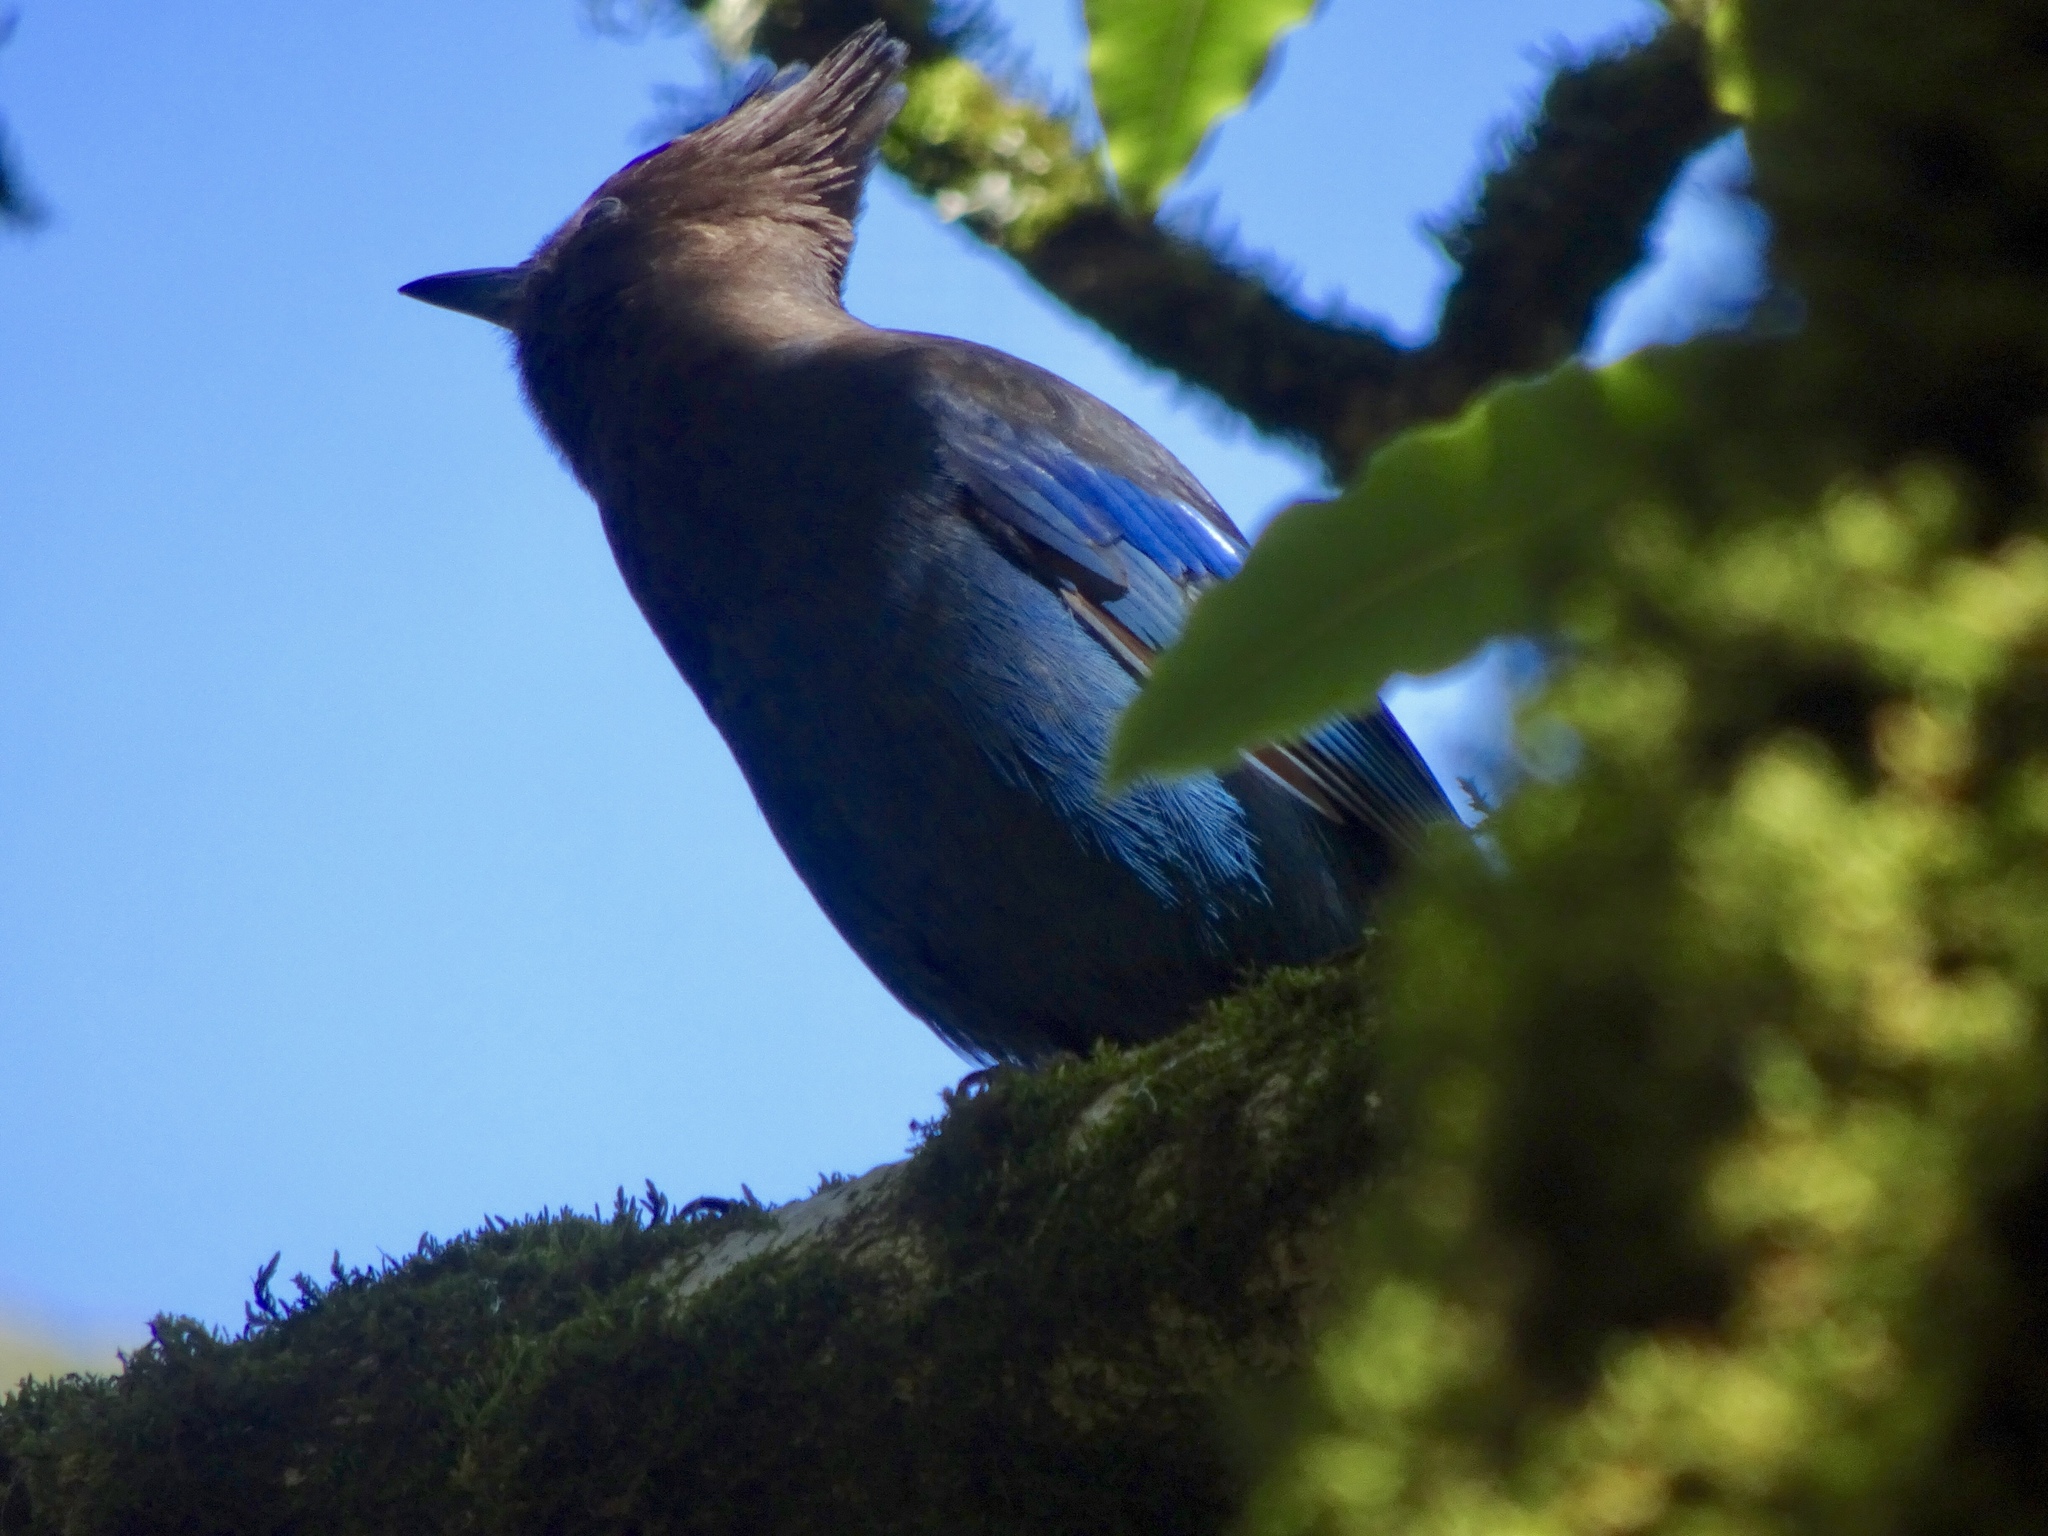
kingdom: Animalia
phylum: Chordata
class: Aves
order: Passeriformes
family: Corvidae
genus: Cyanocitta
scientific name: Cyanocitta stelleri
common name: Steller's jay
